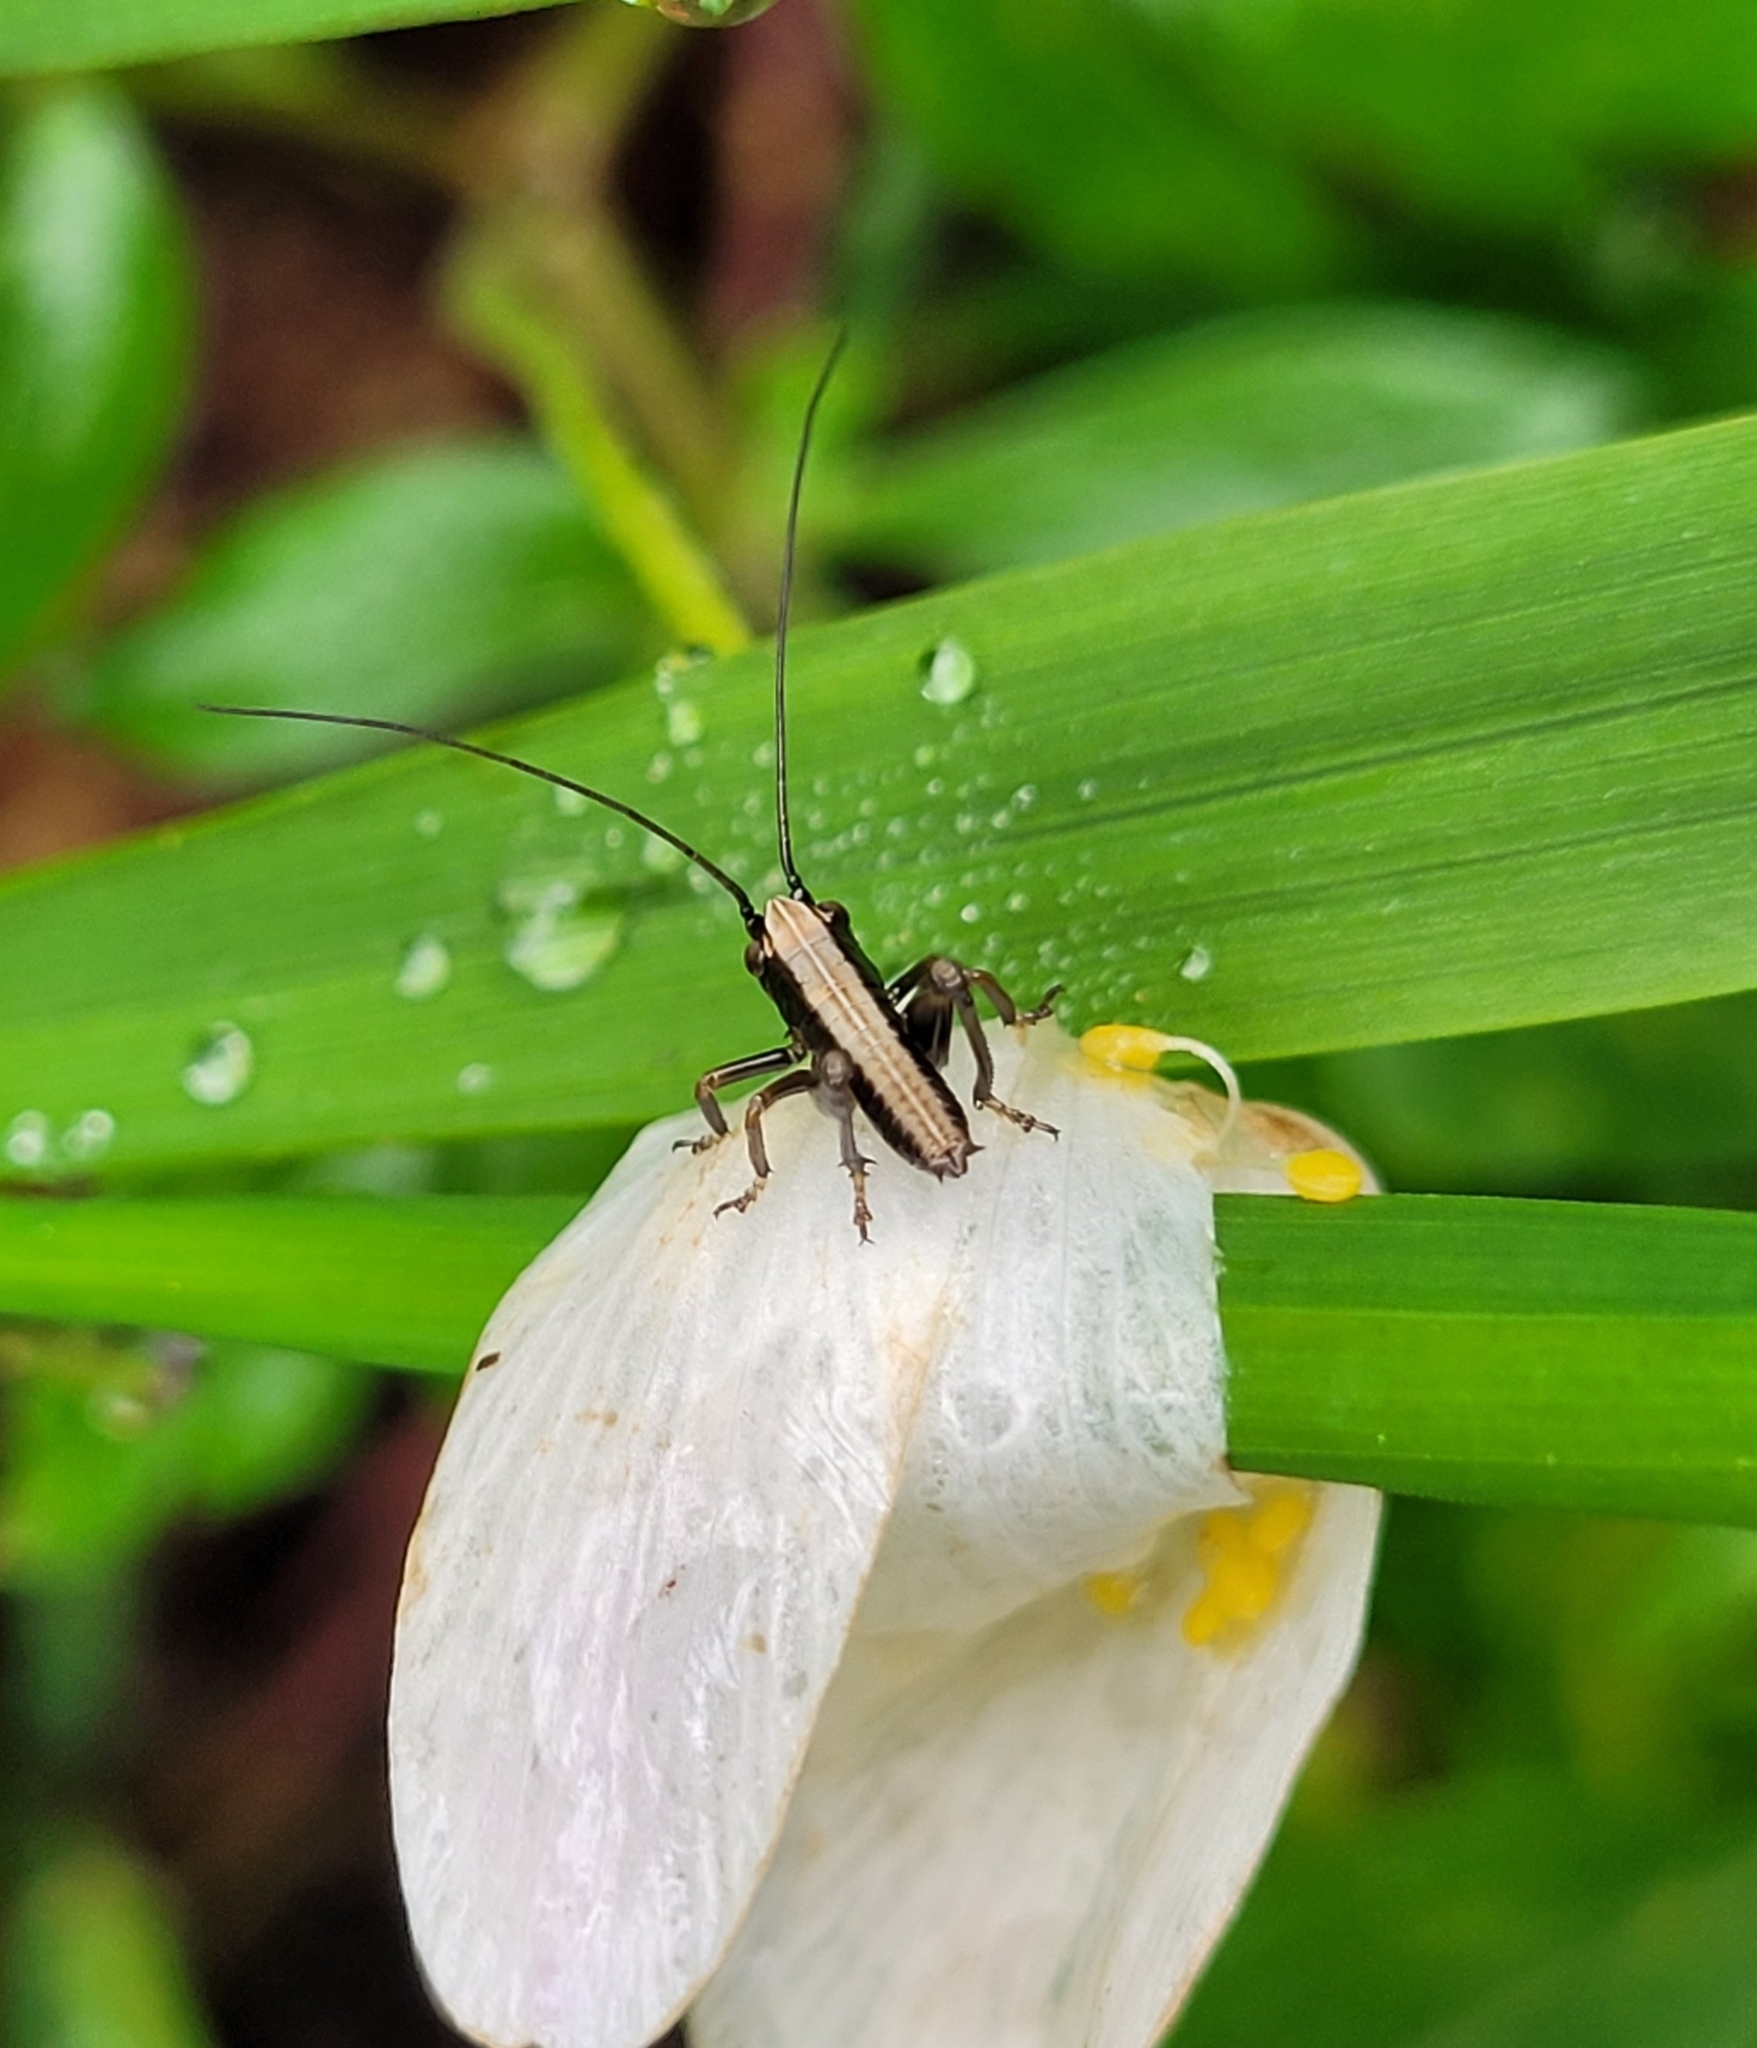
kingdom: Animalia
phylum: Arthropoda
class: Insecta
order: Orthoptera
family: Tettigoniidae
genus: Pholidoptera
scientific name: Pholidoptera griseoaptera
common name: Dark bush-cricket
